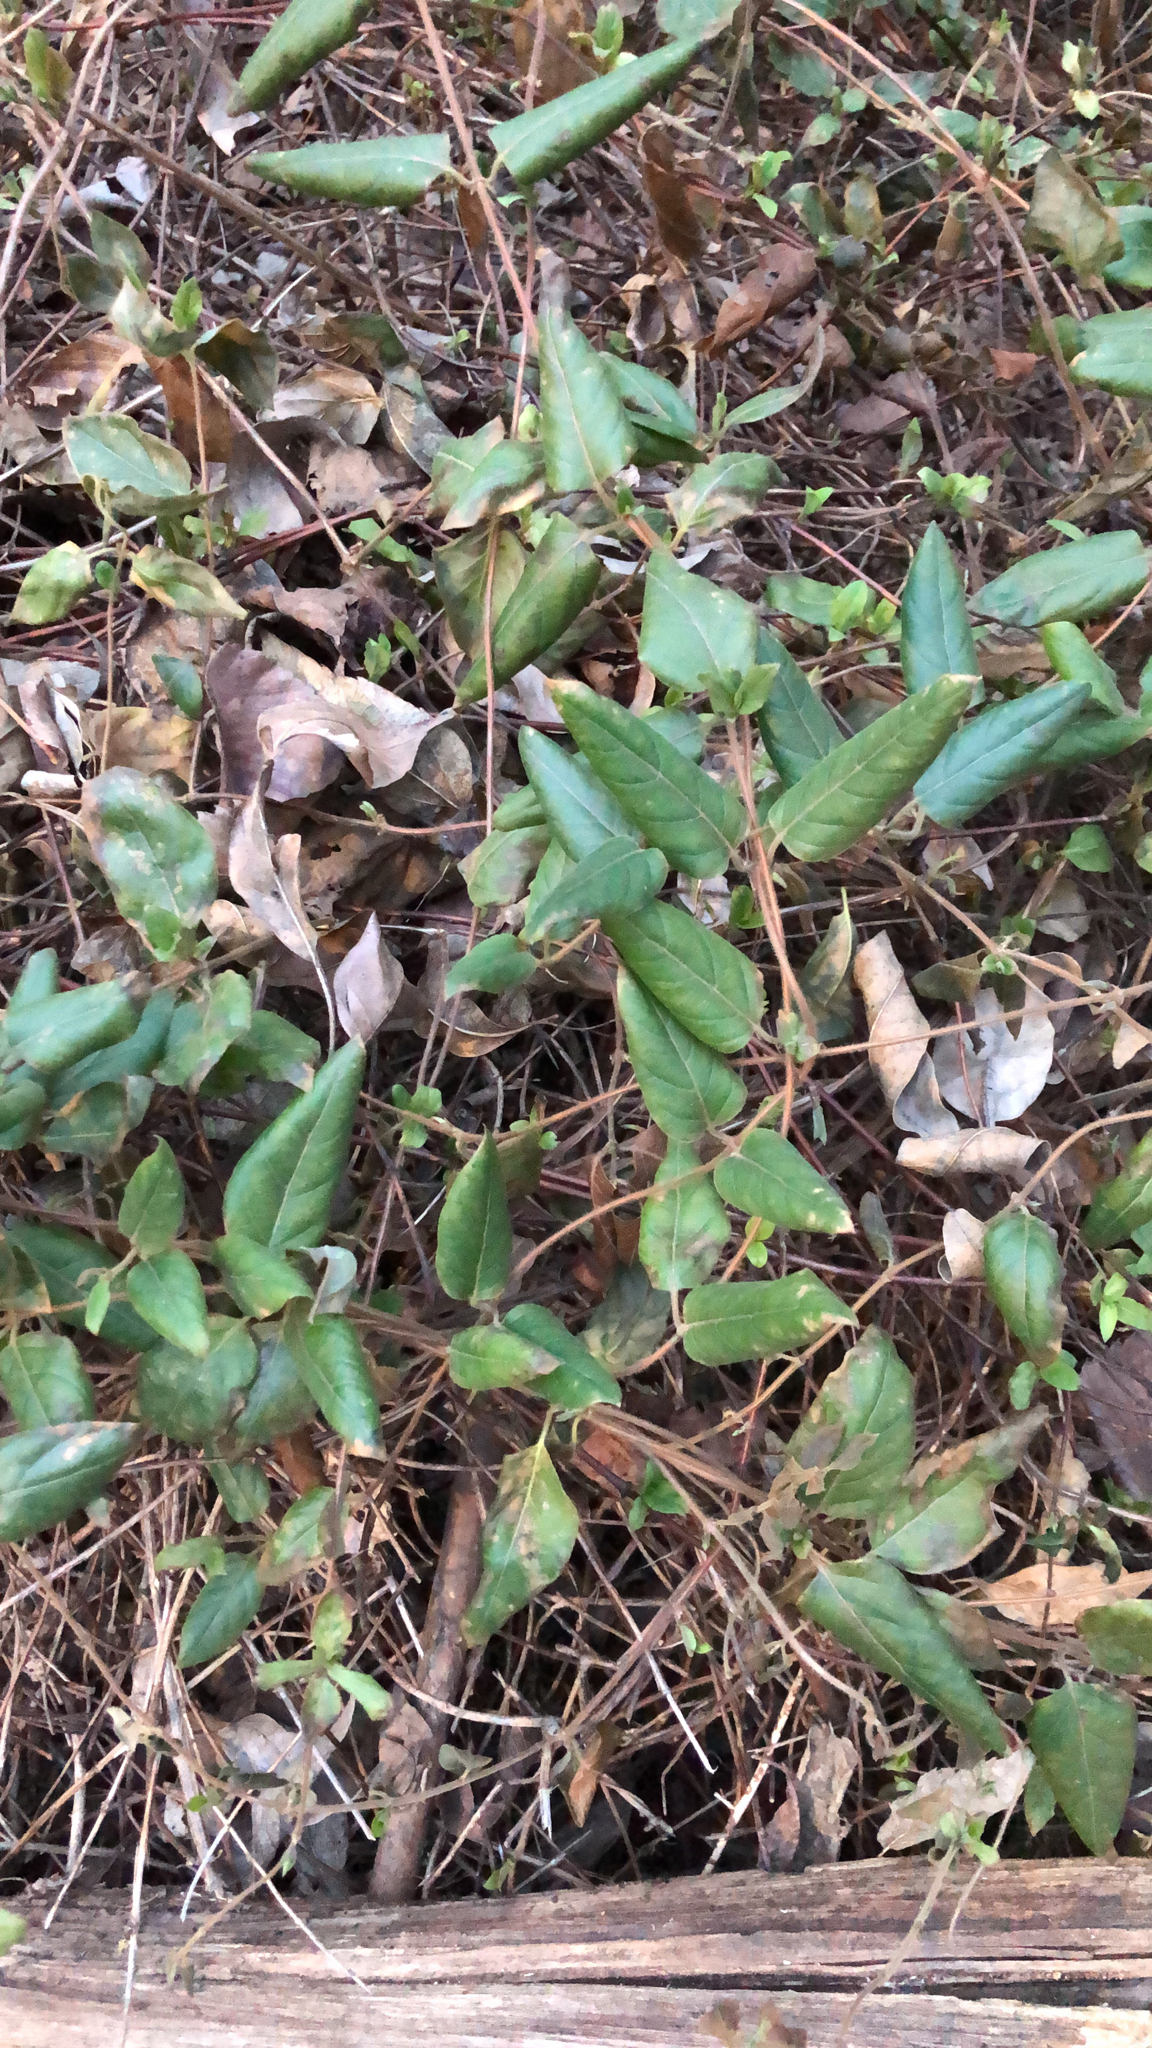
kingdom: Plantae
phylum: Tracheophyta
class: Magnoliopsida
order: Dipsacales
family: Caprifoliaceae
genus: Lonicera
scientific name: Lonicera japonica
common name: Japanese honeysuckle
